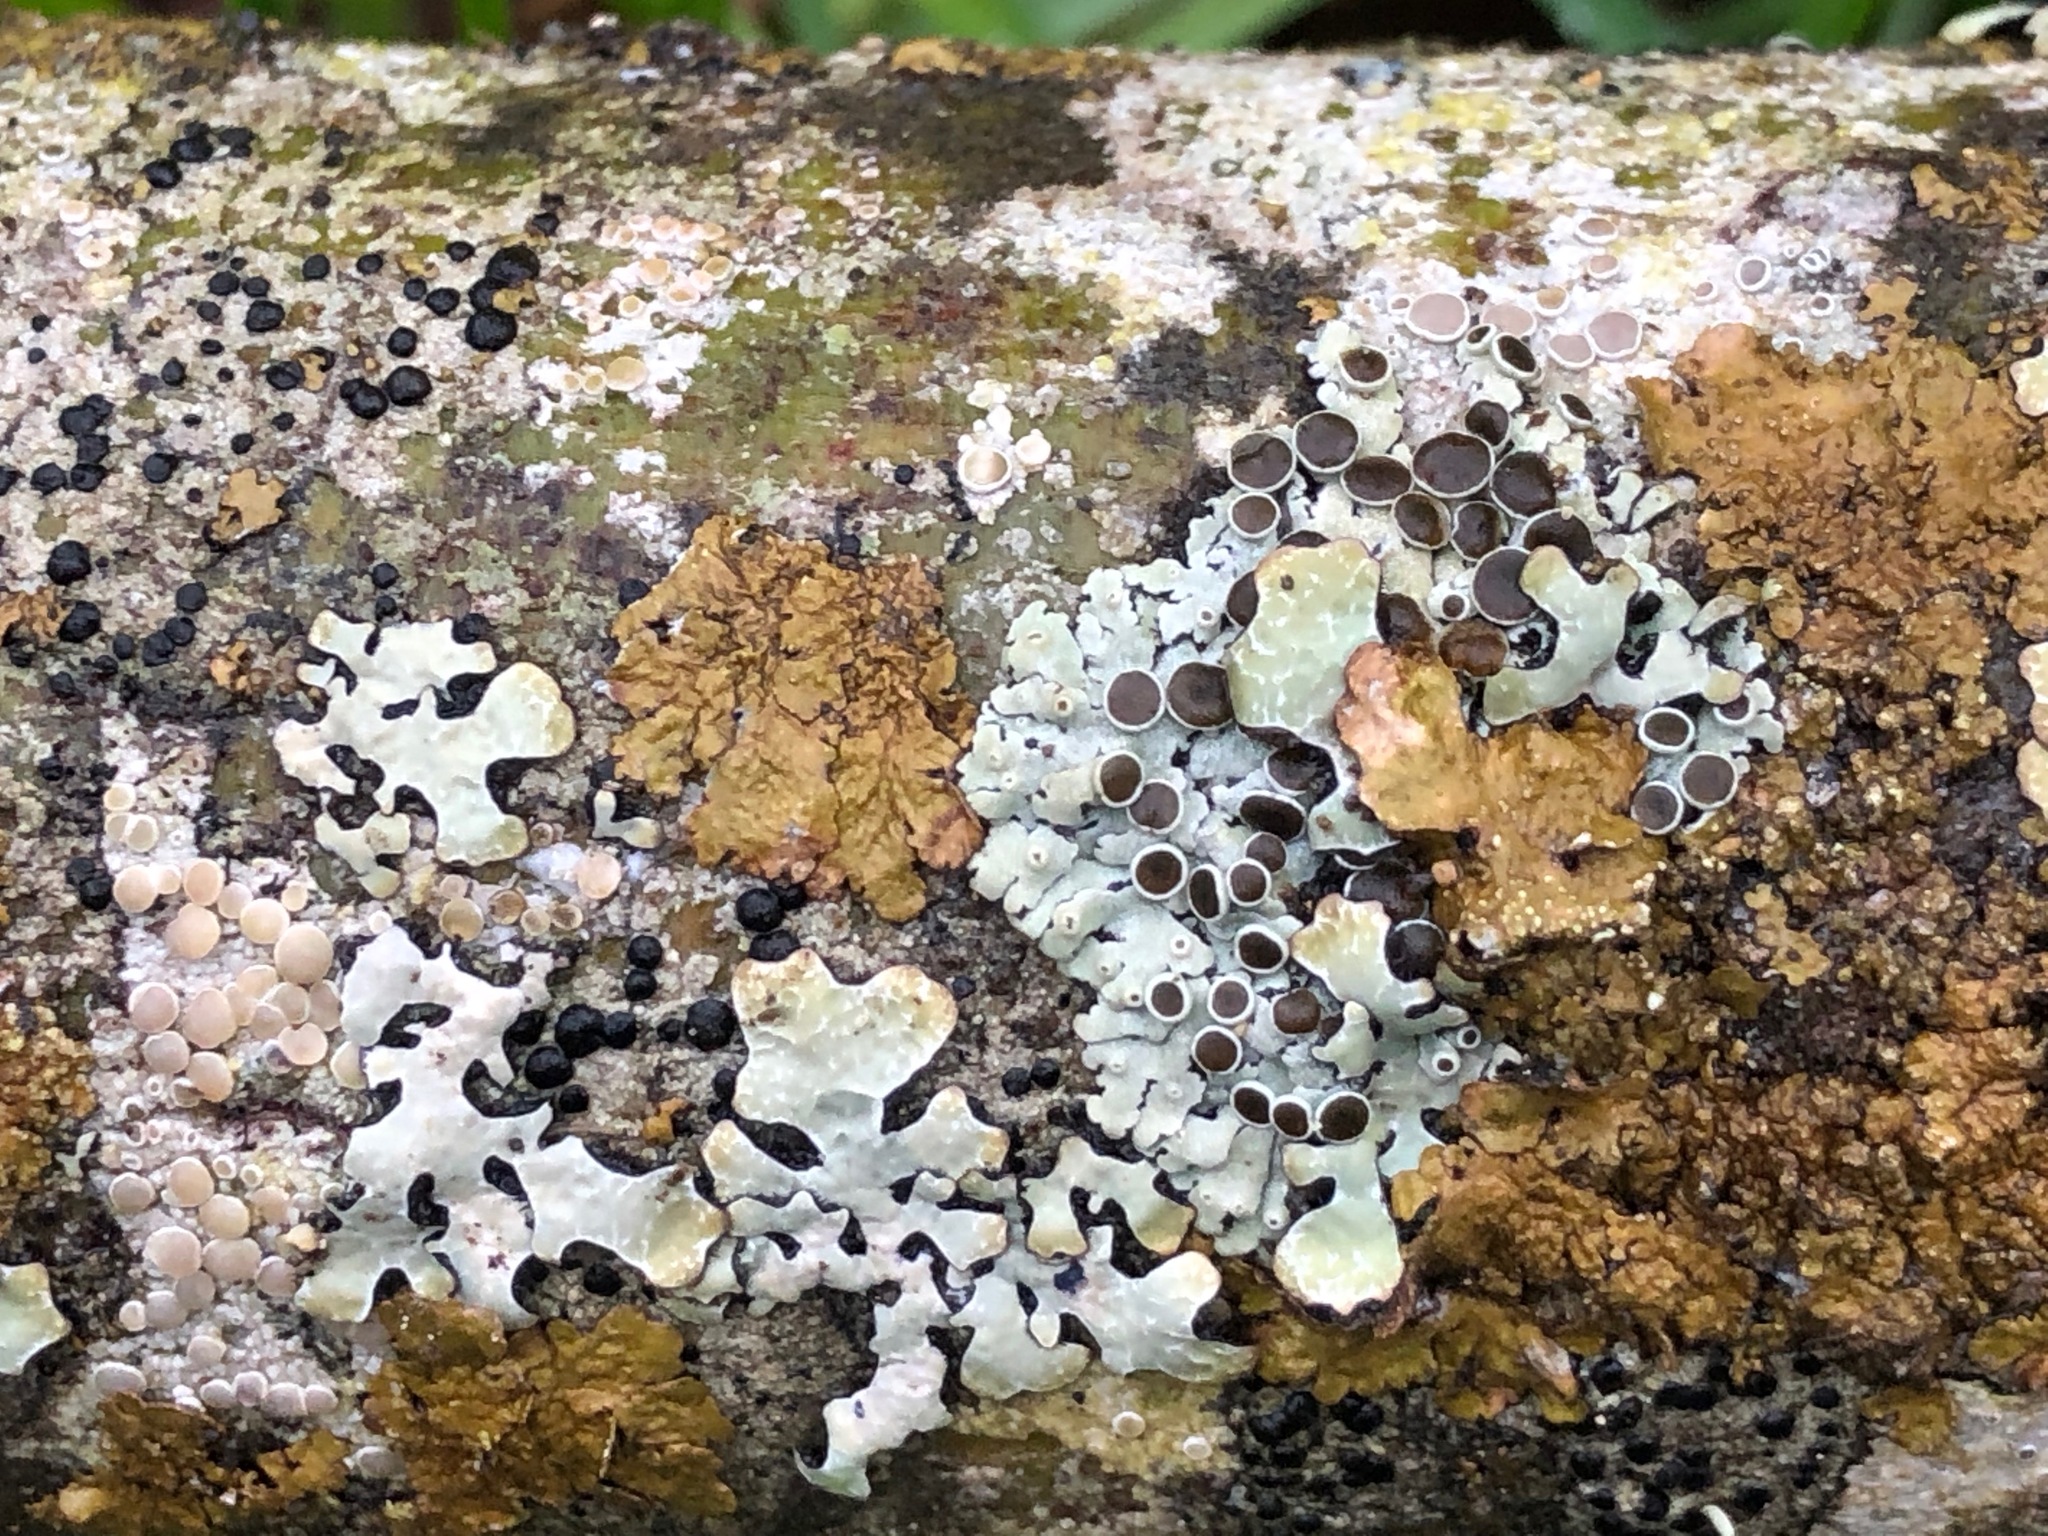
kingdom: Fungi
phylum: Ascomycota
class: Lecanoromycetes
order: Caliciales
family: Physciaceae
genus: Physcia
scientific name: Physcia aipolia
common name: Hoary rosette lichen
